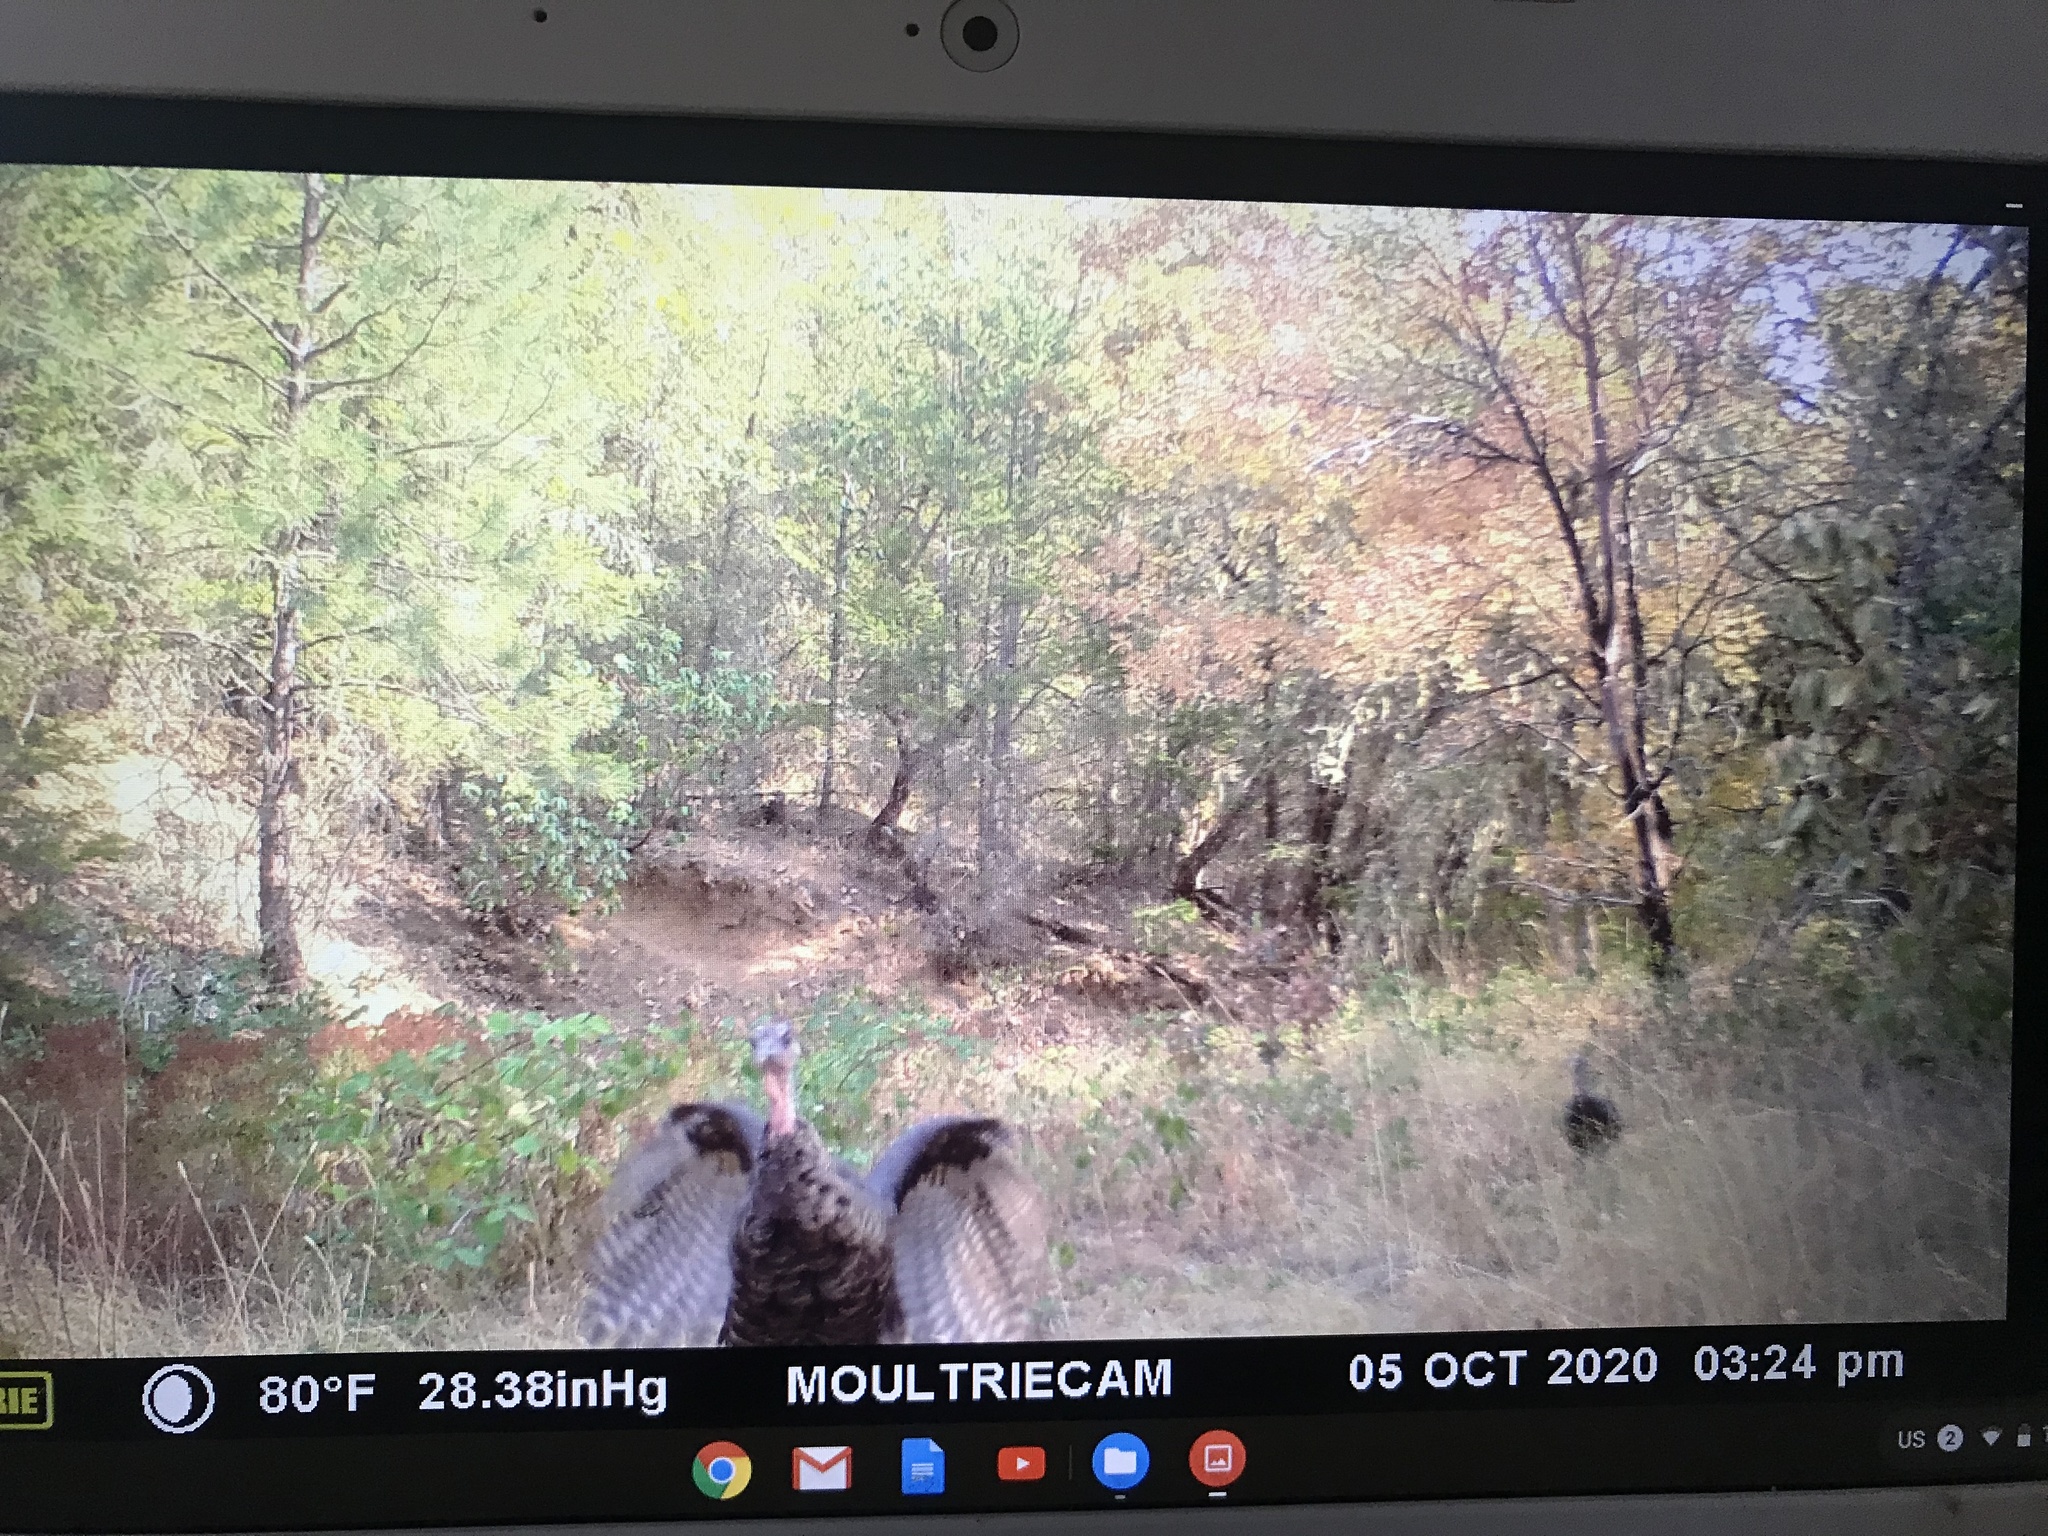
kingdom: Animalia
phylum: Chordata
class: Aves
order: Galliformes
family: Phasianidae
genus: Meleagris
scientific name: Meleagris gallopavo
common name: Wild turkey
